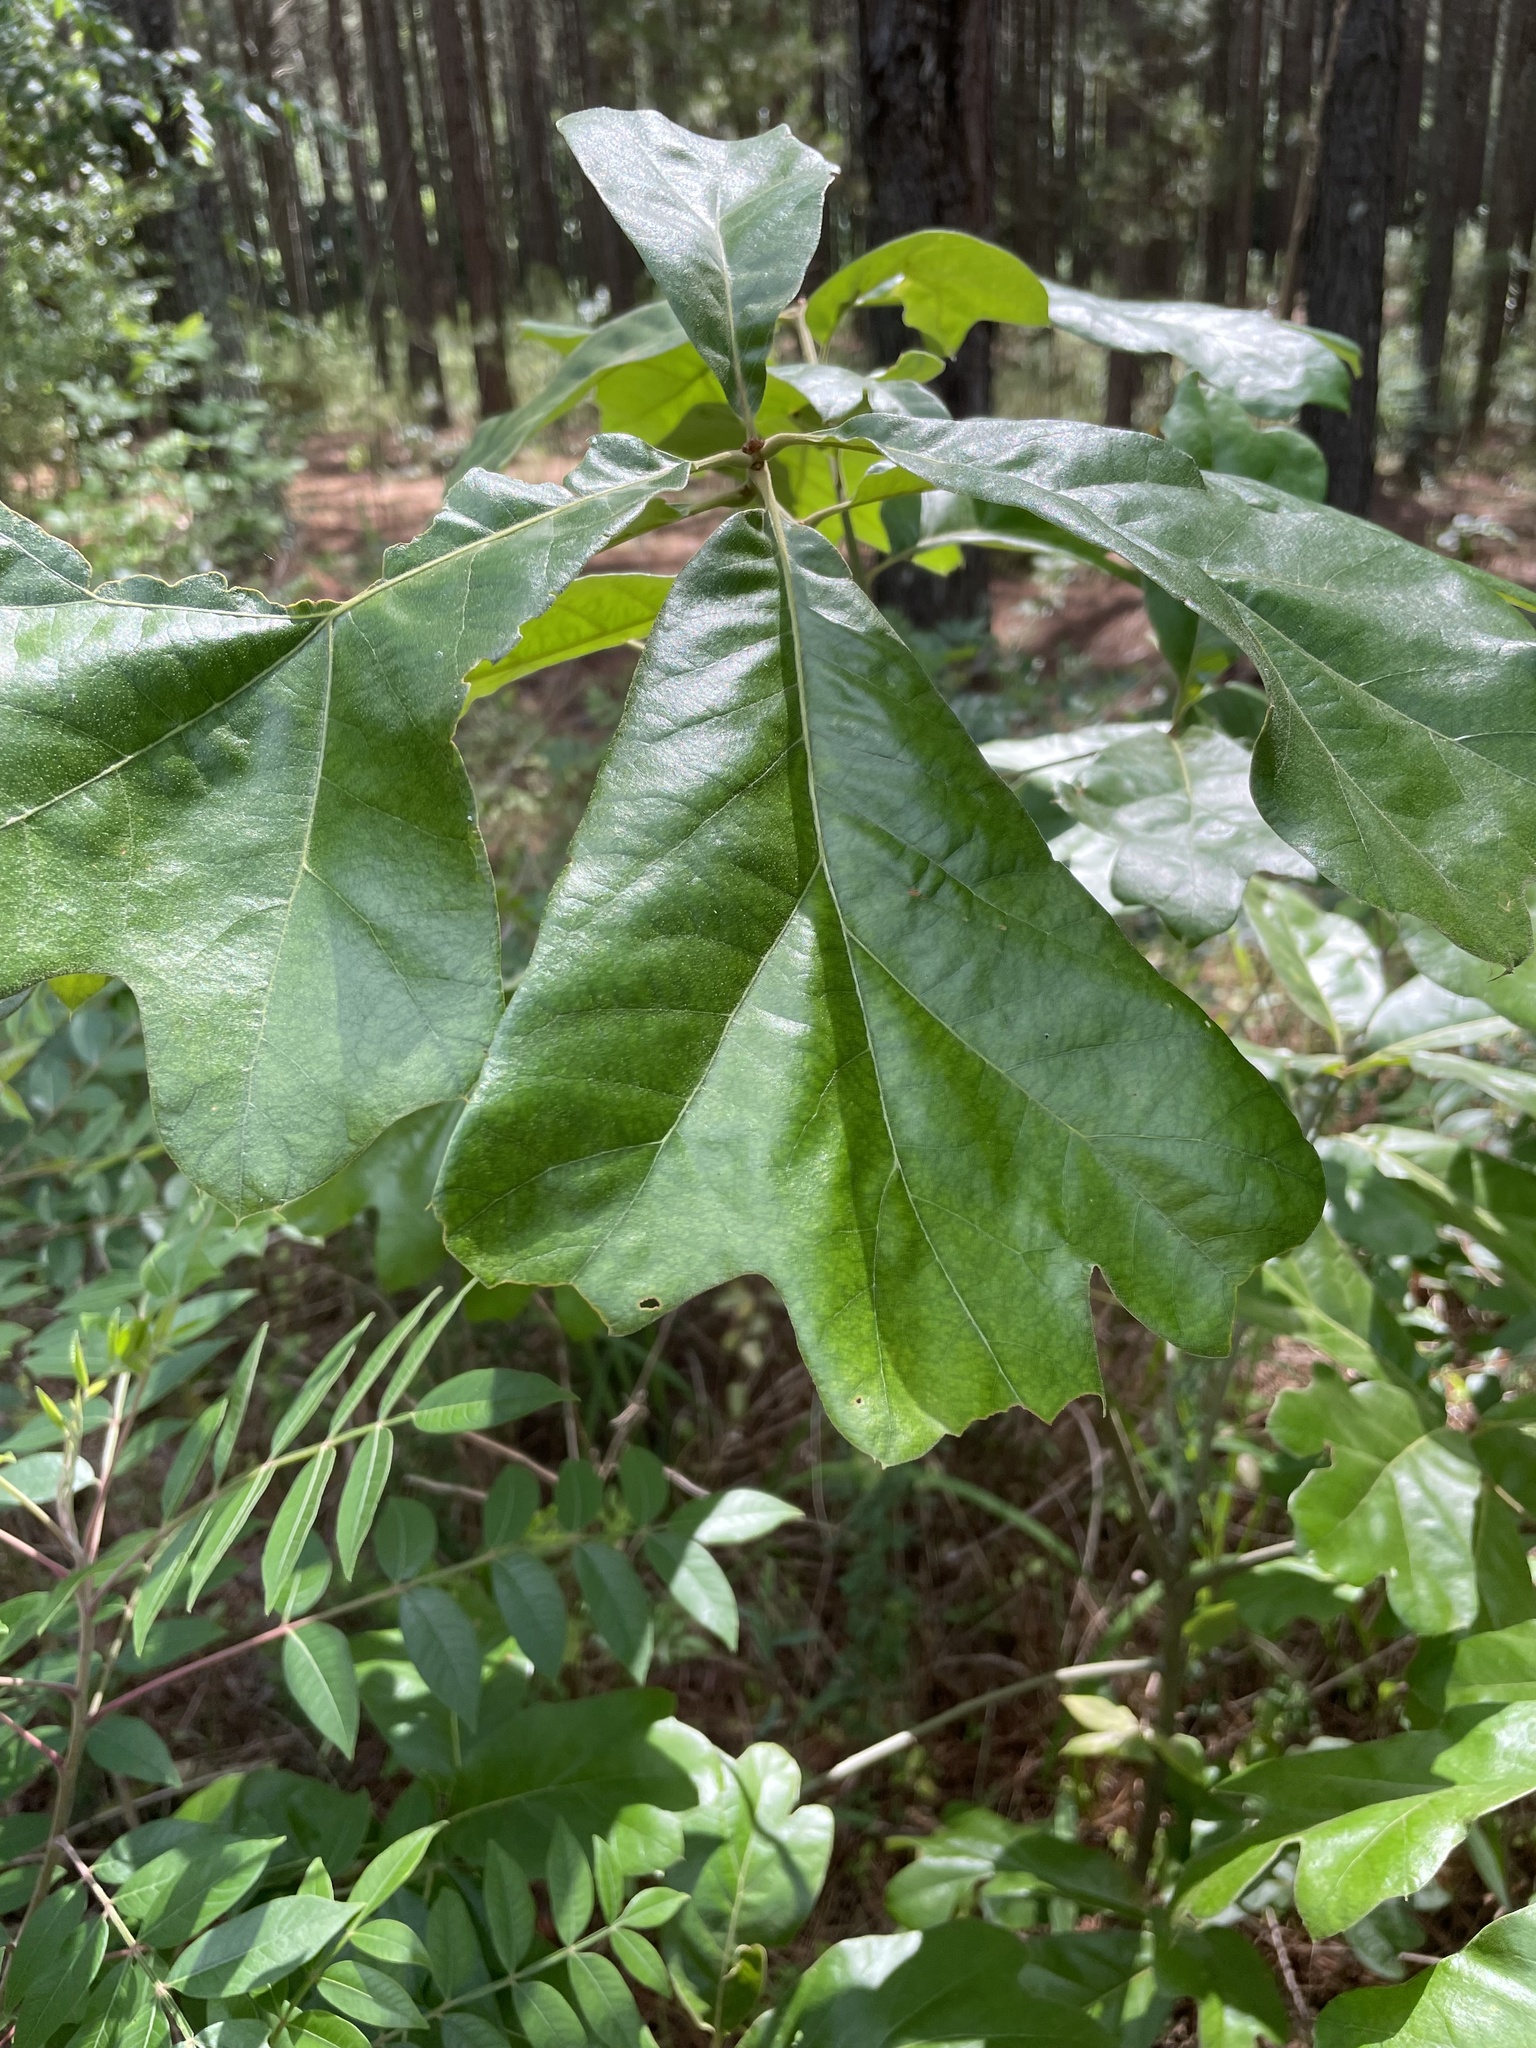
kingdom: Plantae
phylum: Tracheophyta
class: Magnoliopsida
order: Fagales
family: Fagaceae
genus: Quercus
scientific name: Quercus falcata
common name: Southern red oak
